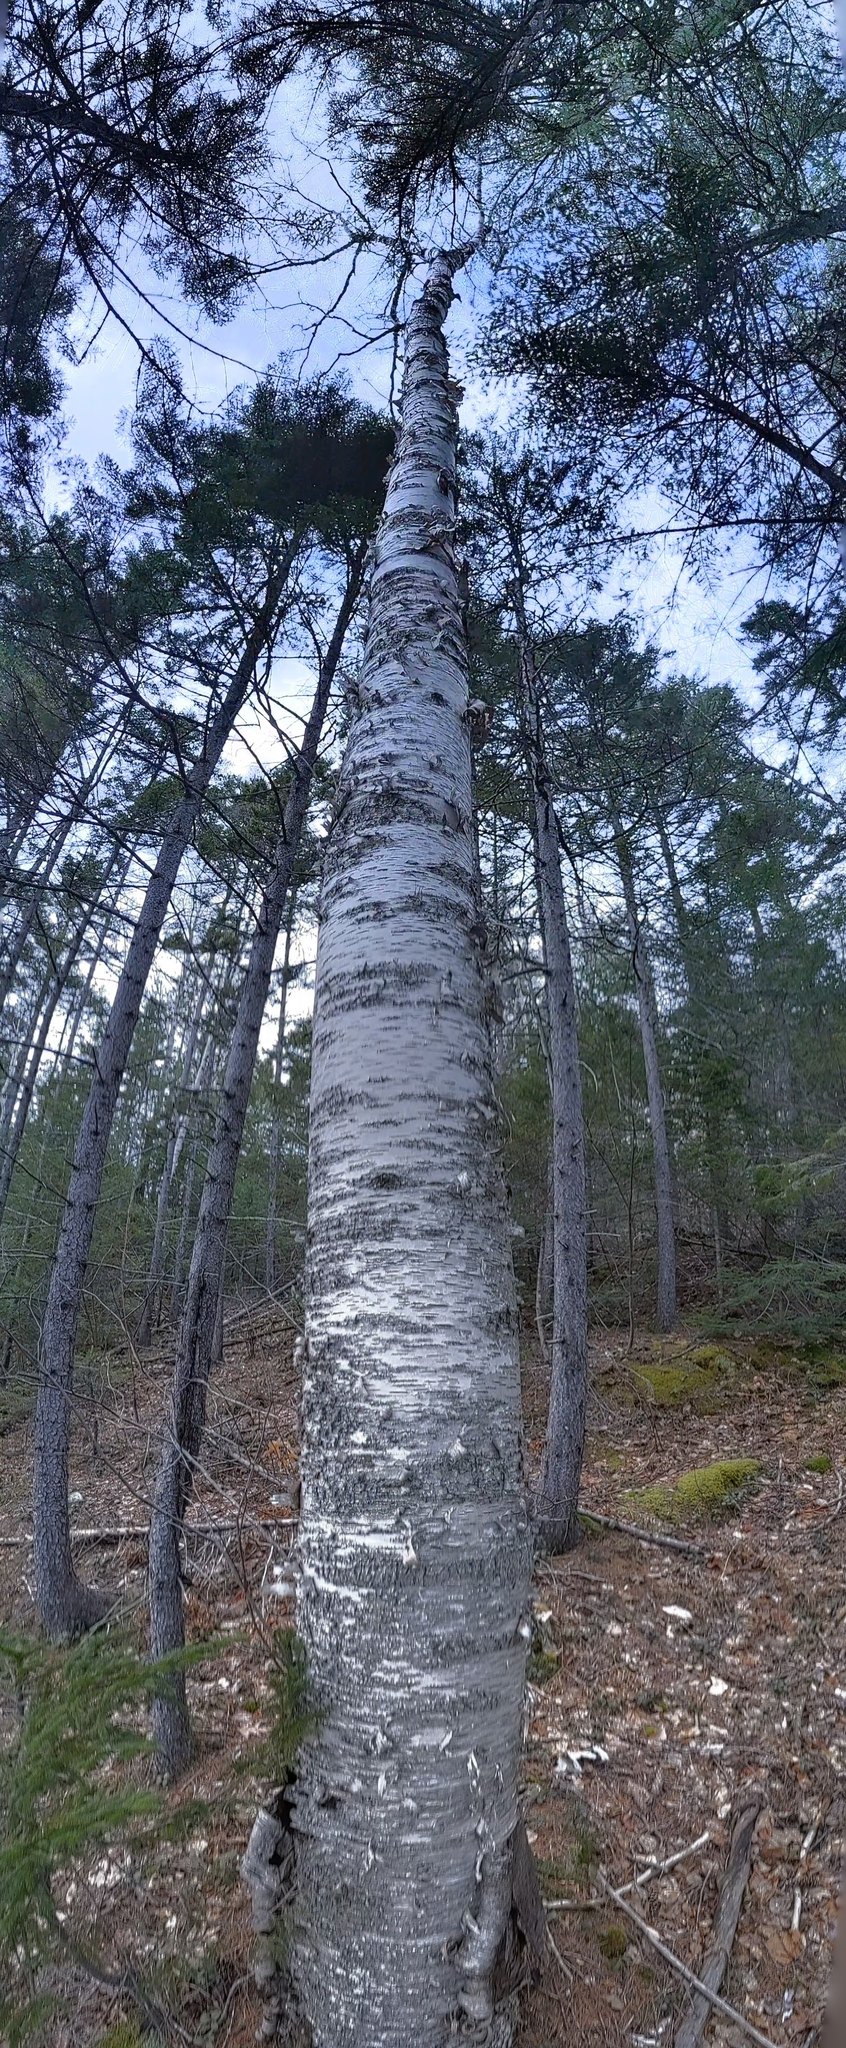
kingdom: Plantae
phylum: Tracheophyta
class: Magnoliopsida
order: Fagales
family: Betulaceae
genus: Betula
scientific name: Betula papyrifera
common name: Paper birch
